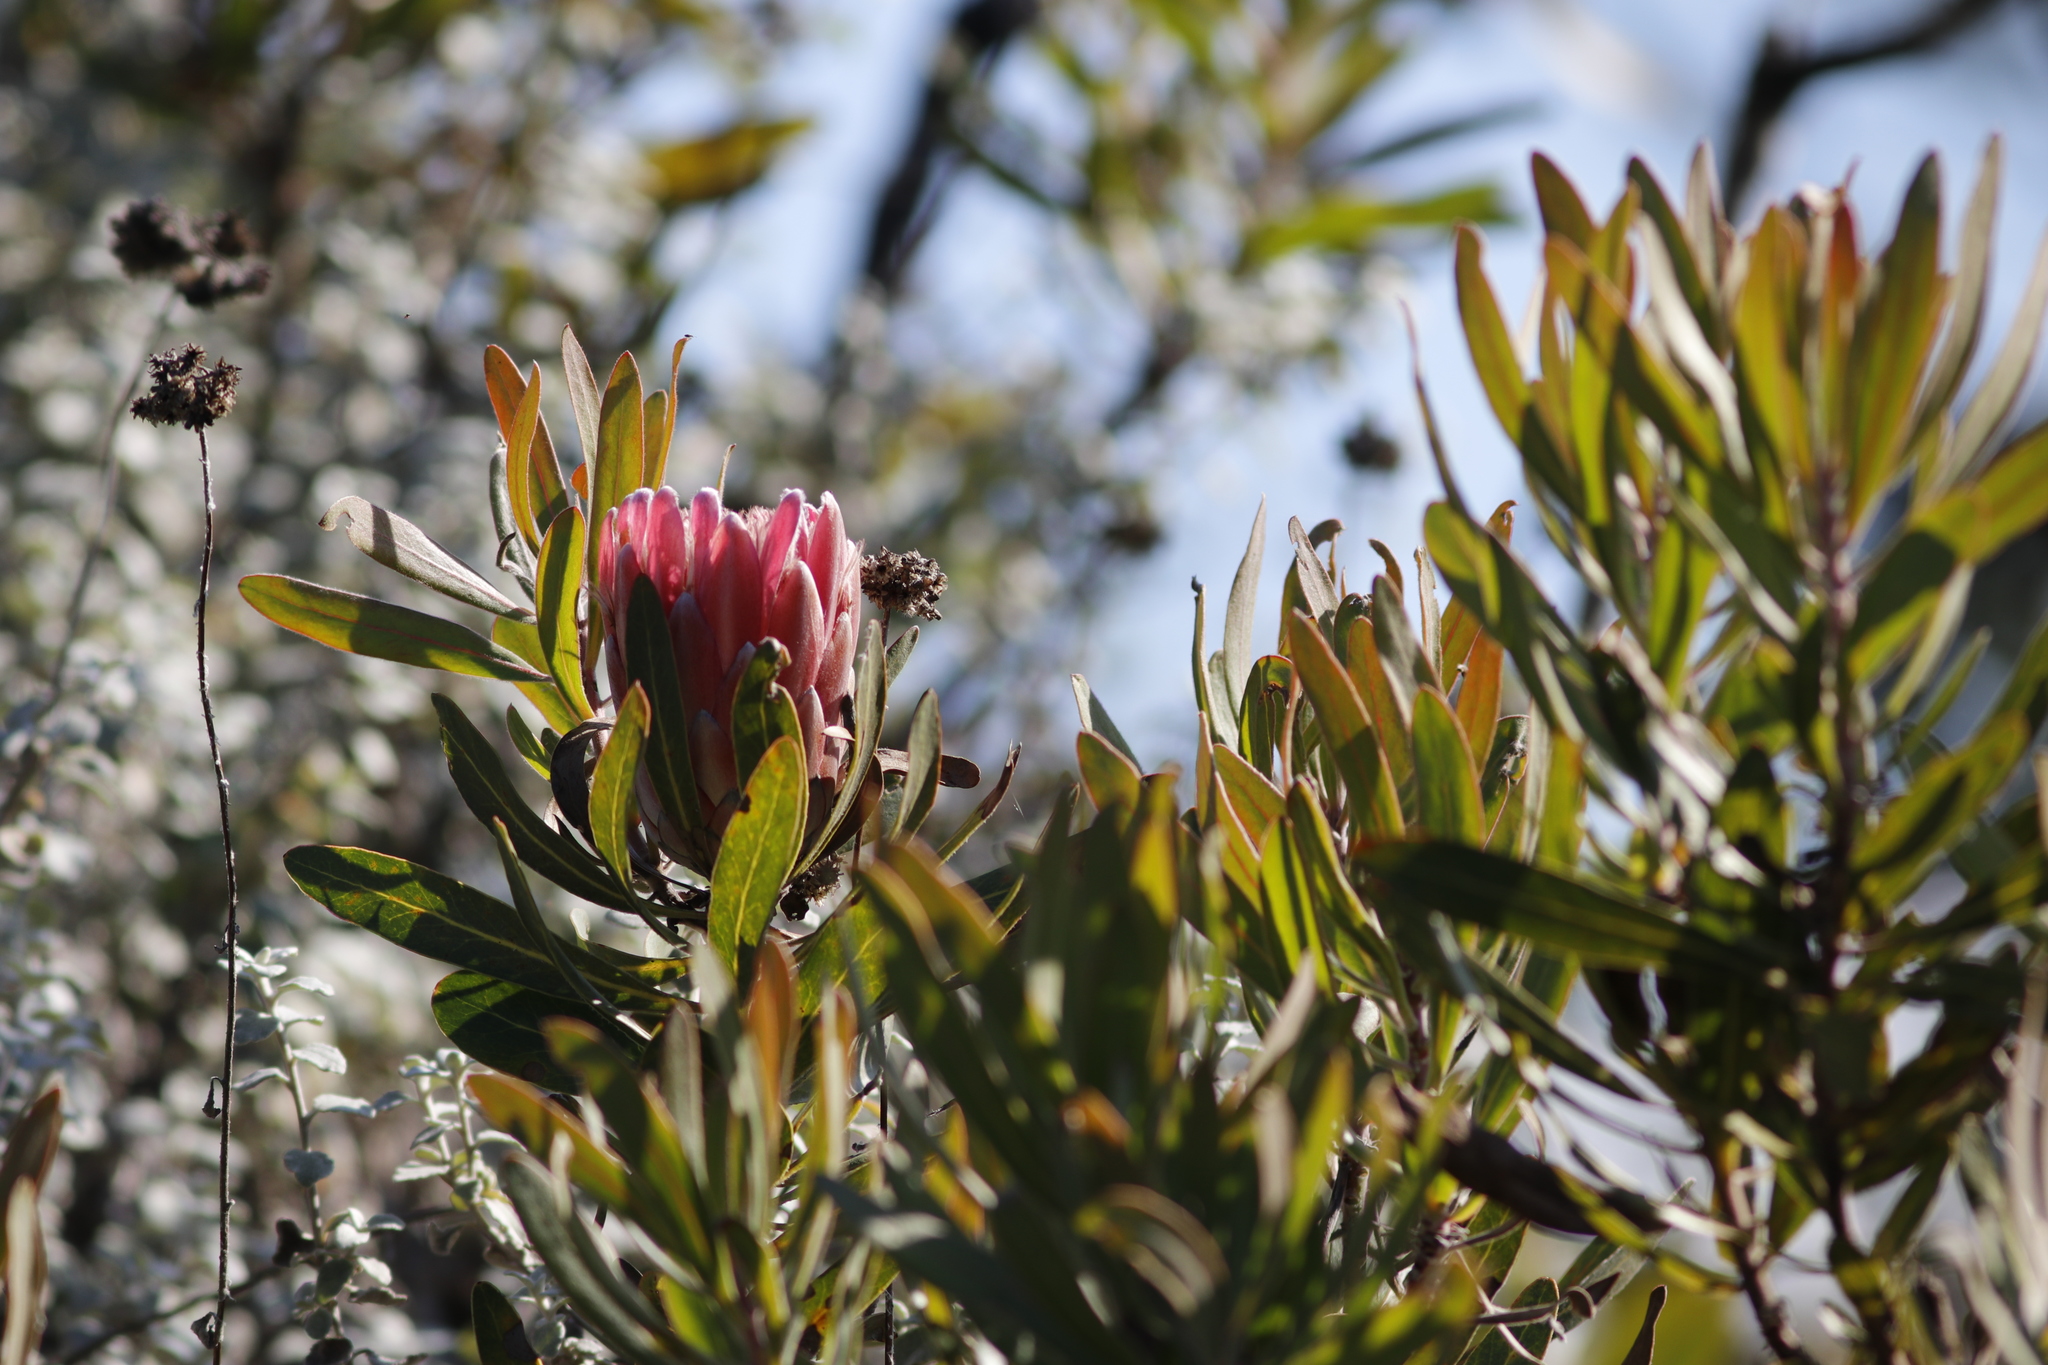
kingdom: Plantae
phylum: Tracheophyta
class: Magnoliopsida
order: Proteales
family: Proteaceae
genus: Protea
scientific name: Protea
